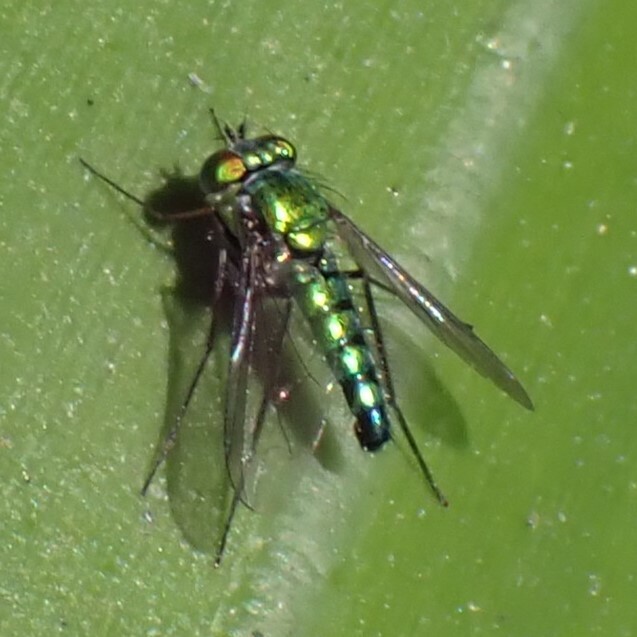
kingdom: Animalia
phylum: Arthropoda
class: Insecta
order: Diptera
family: Dolichopodidae
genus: Condylostylus
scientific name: Condylostylus longicornis
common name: Long-legged fly
